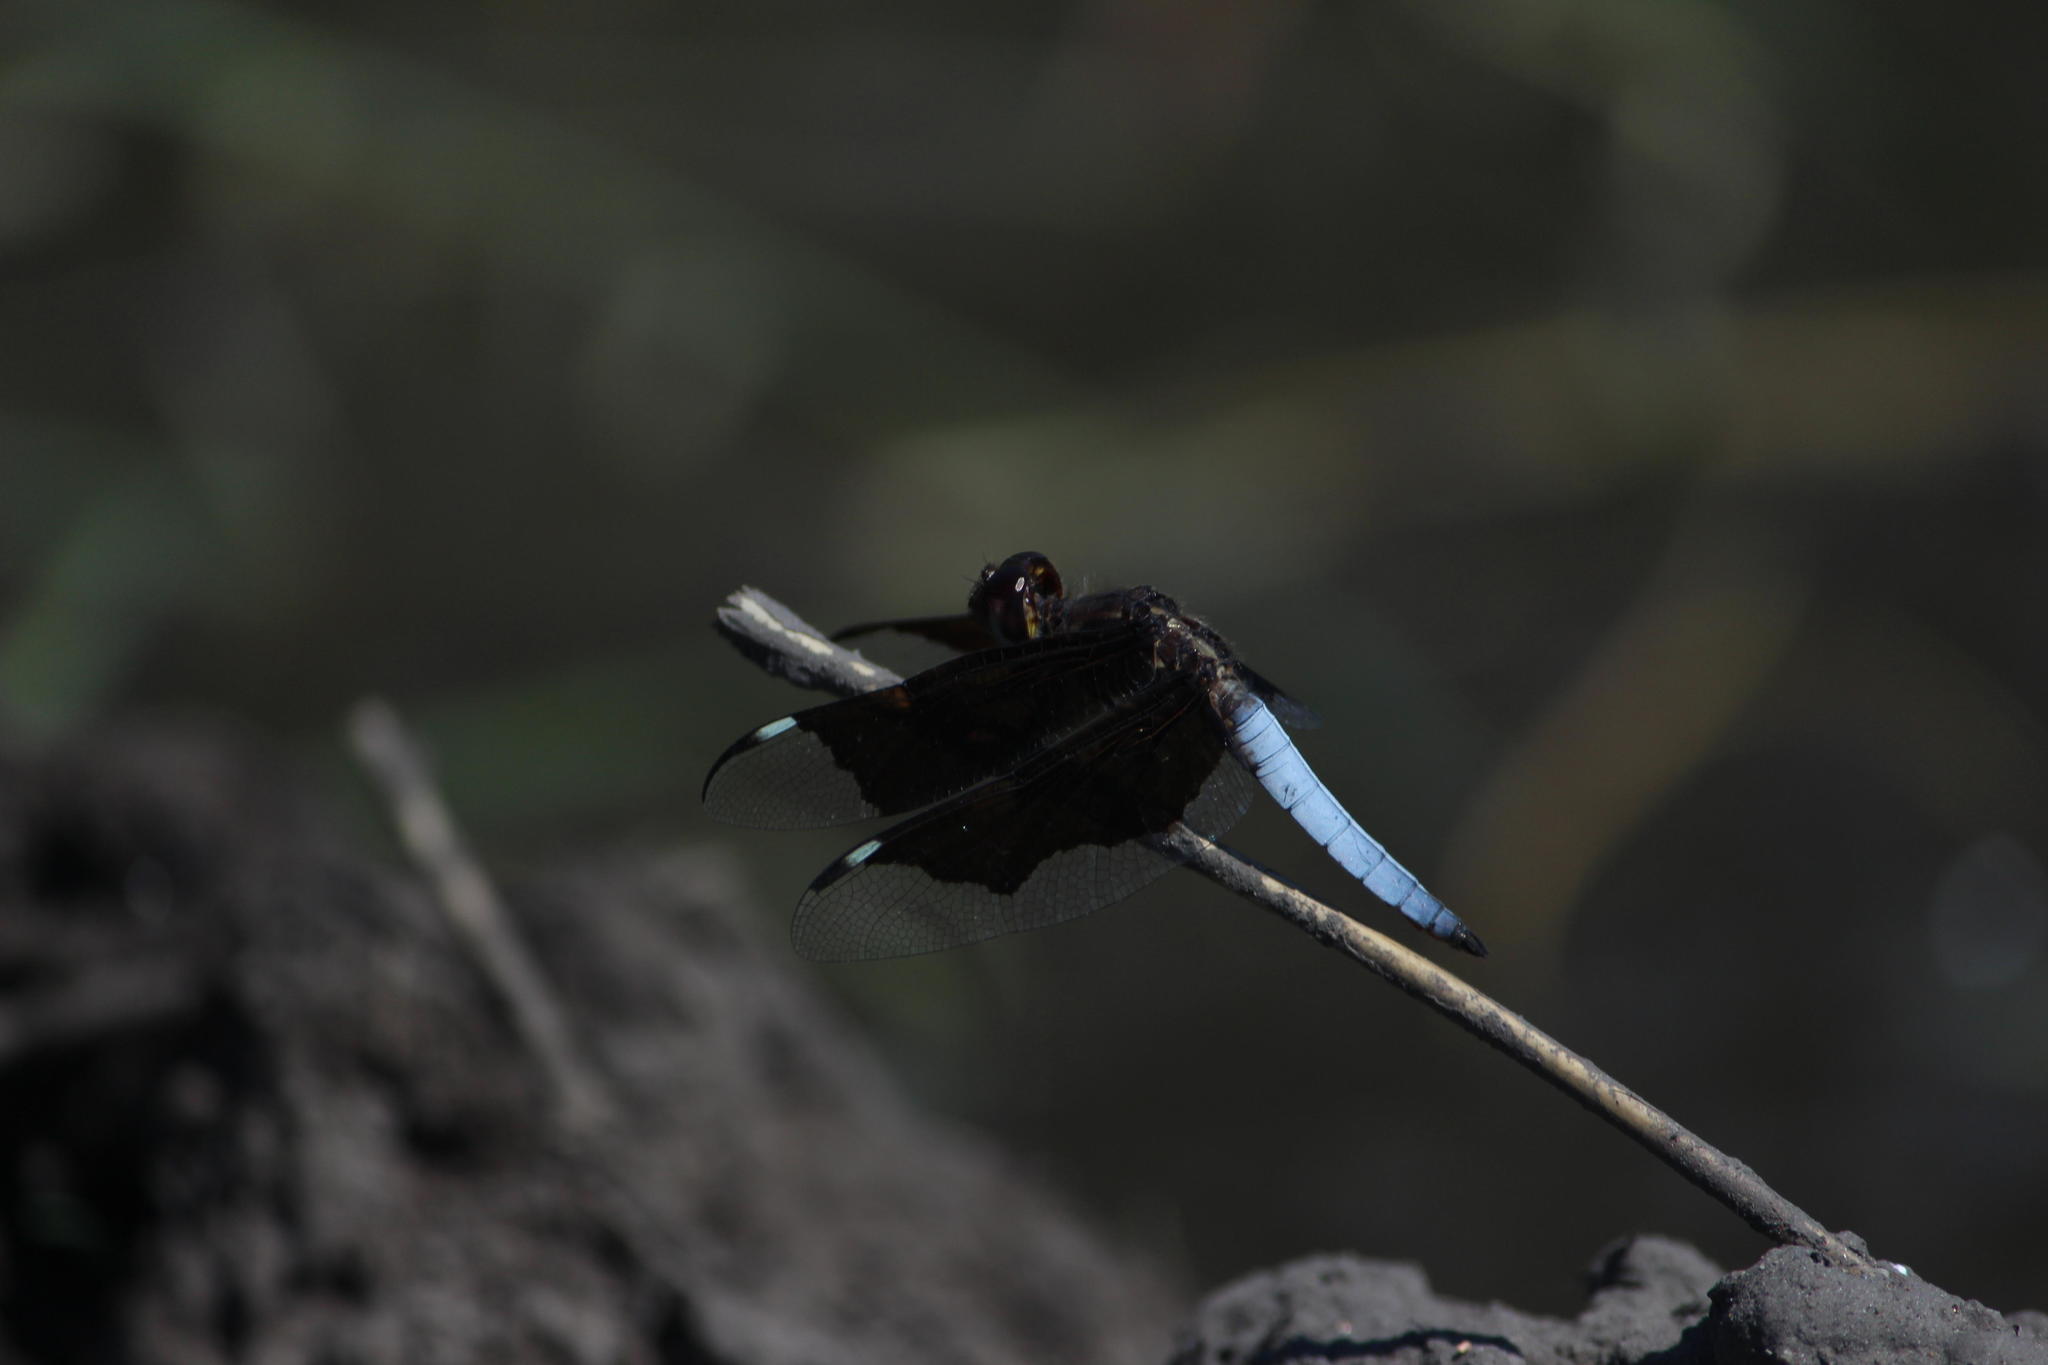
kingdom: Animalia
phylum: Arthropoda
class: Insecta
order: Odonata
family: Libellulidae
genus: Palpopleura
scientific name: Palpopleura lucia
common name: Lucia widow
